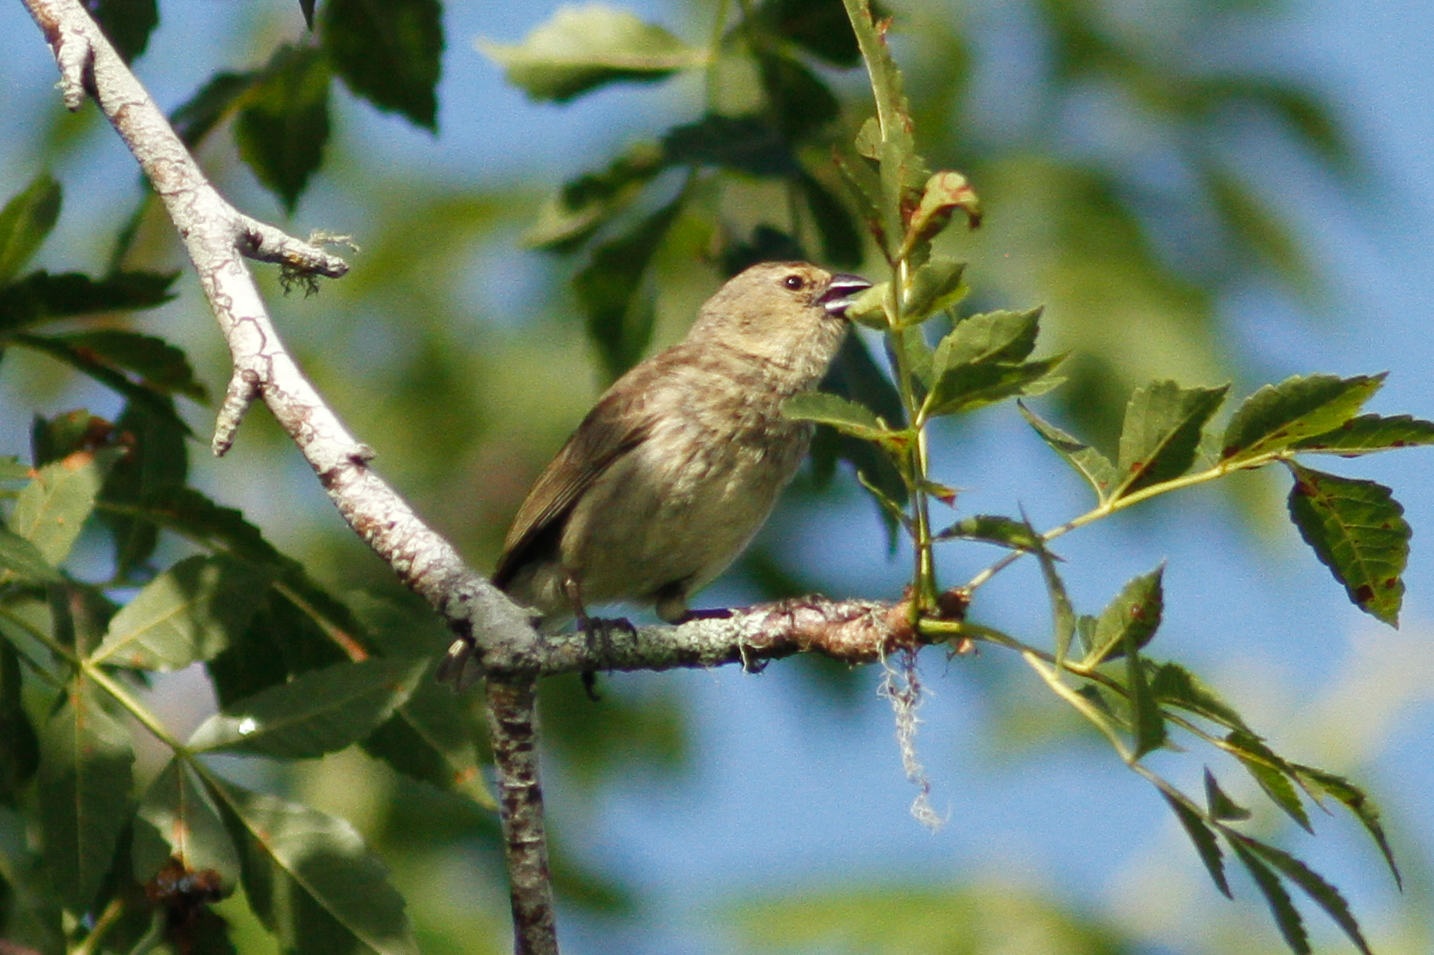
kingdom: Animalia
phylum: Chordata
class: Aves
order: Passeriformes
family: Thraupidae
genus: Camarhynchus
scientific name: Camarhynchus parvulus
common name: Small tree finch
